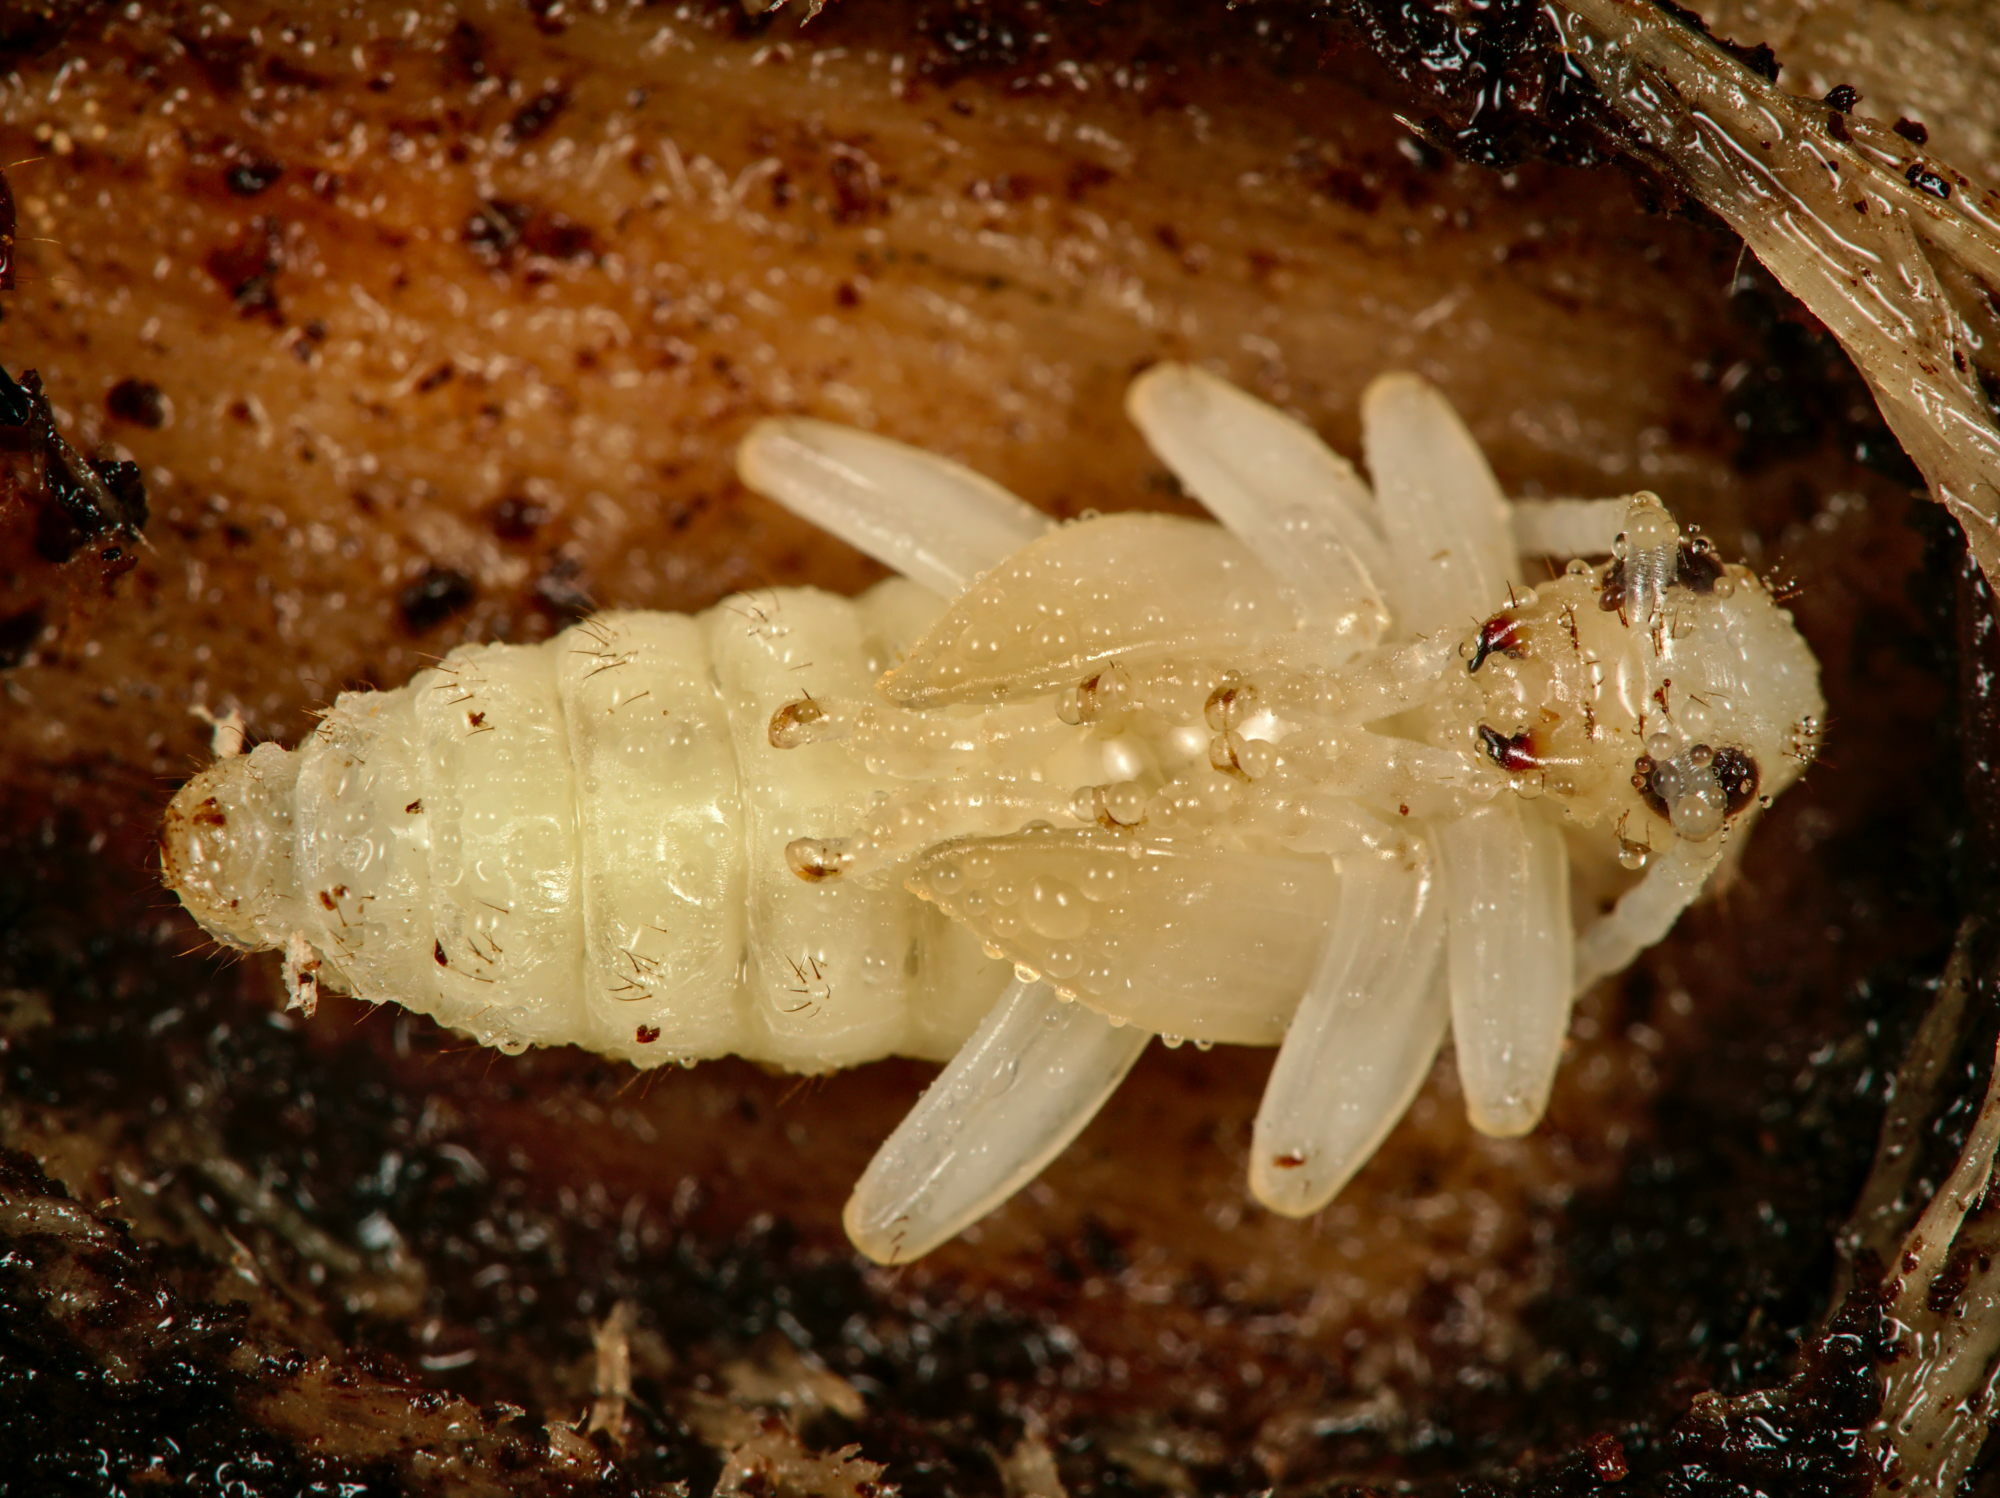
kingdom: Animalia
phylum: Arthropoda
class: Insecta
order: Coleoptera
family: Cerambycidae
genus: Rhagium
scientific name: Rhagium inquisitor
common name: Ribbed pine borer
